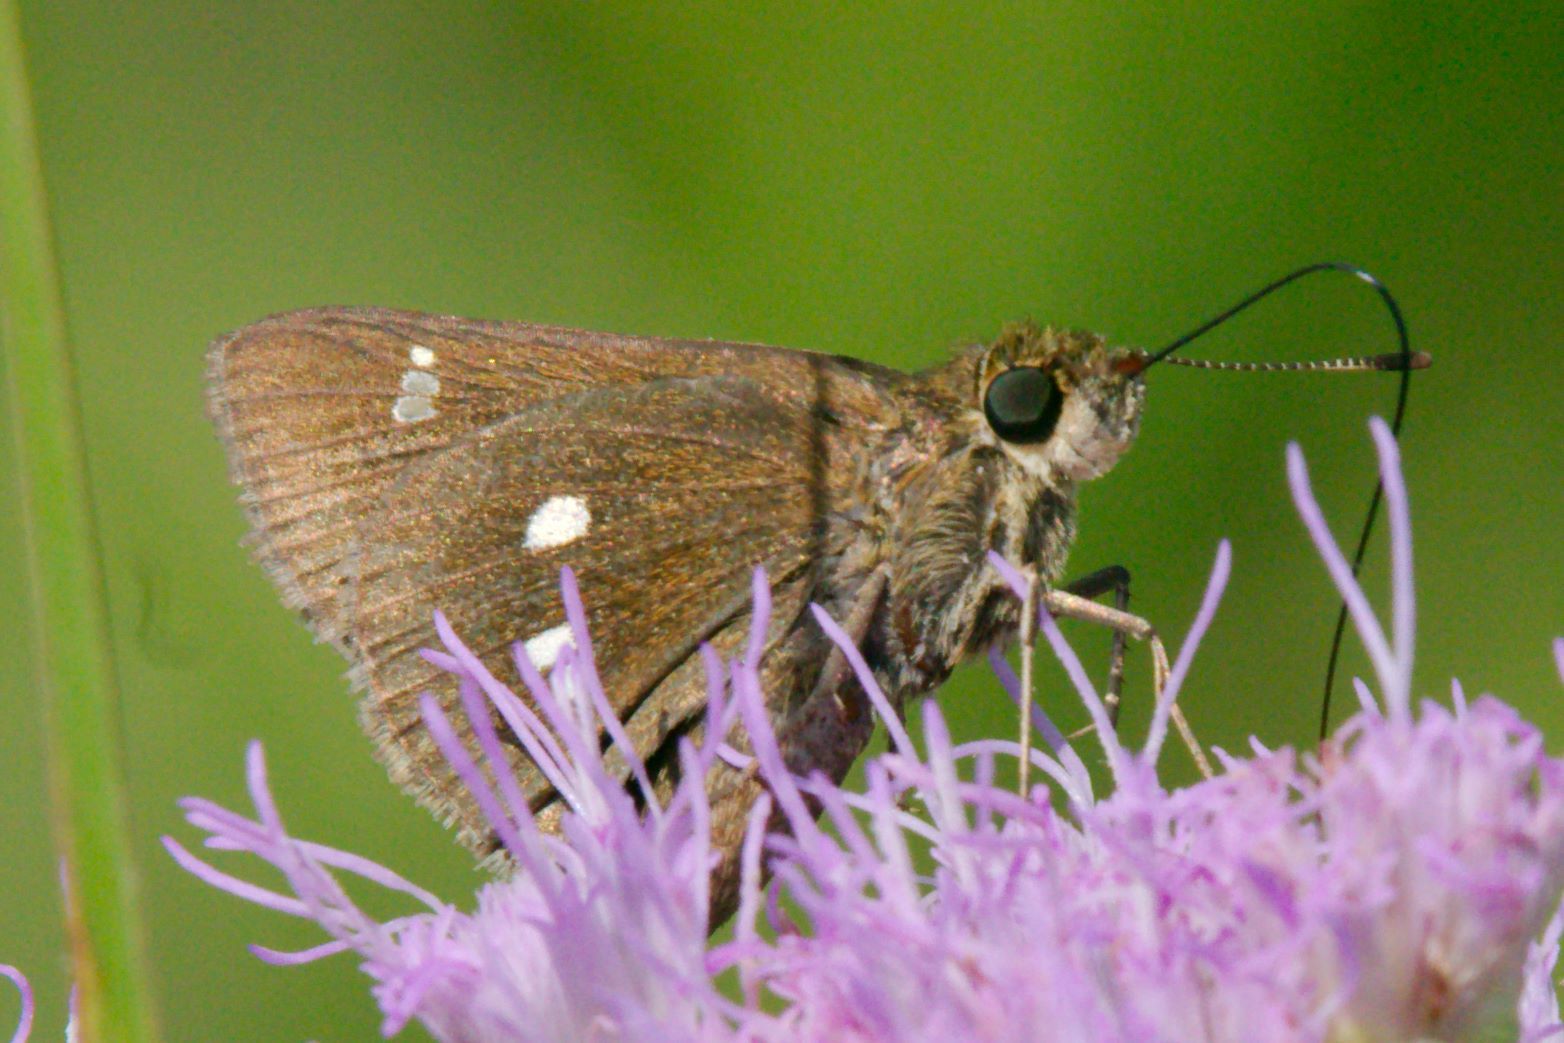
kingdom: Animalia
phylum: Arthropoda
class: Insecta
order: Lepidoptera
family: Hesperiidae
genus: Oligoria
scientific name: Oligoria maculata
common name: Twin-spot skipper
